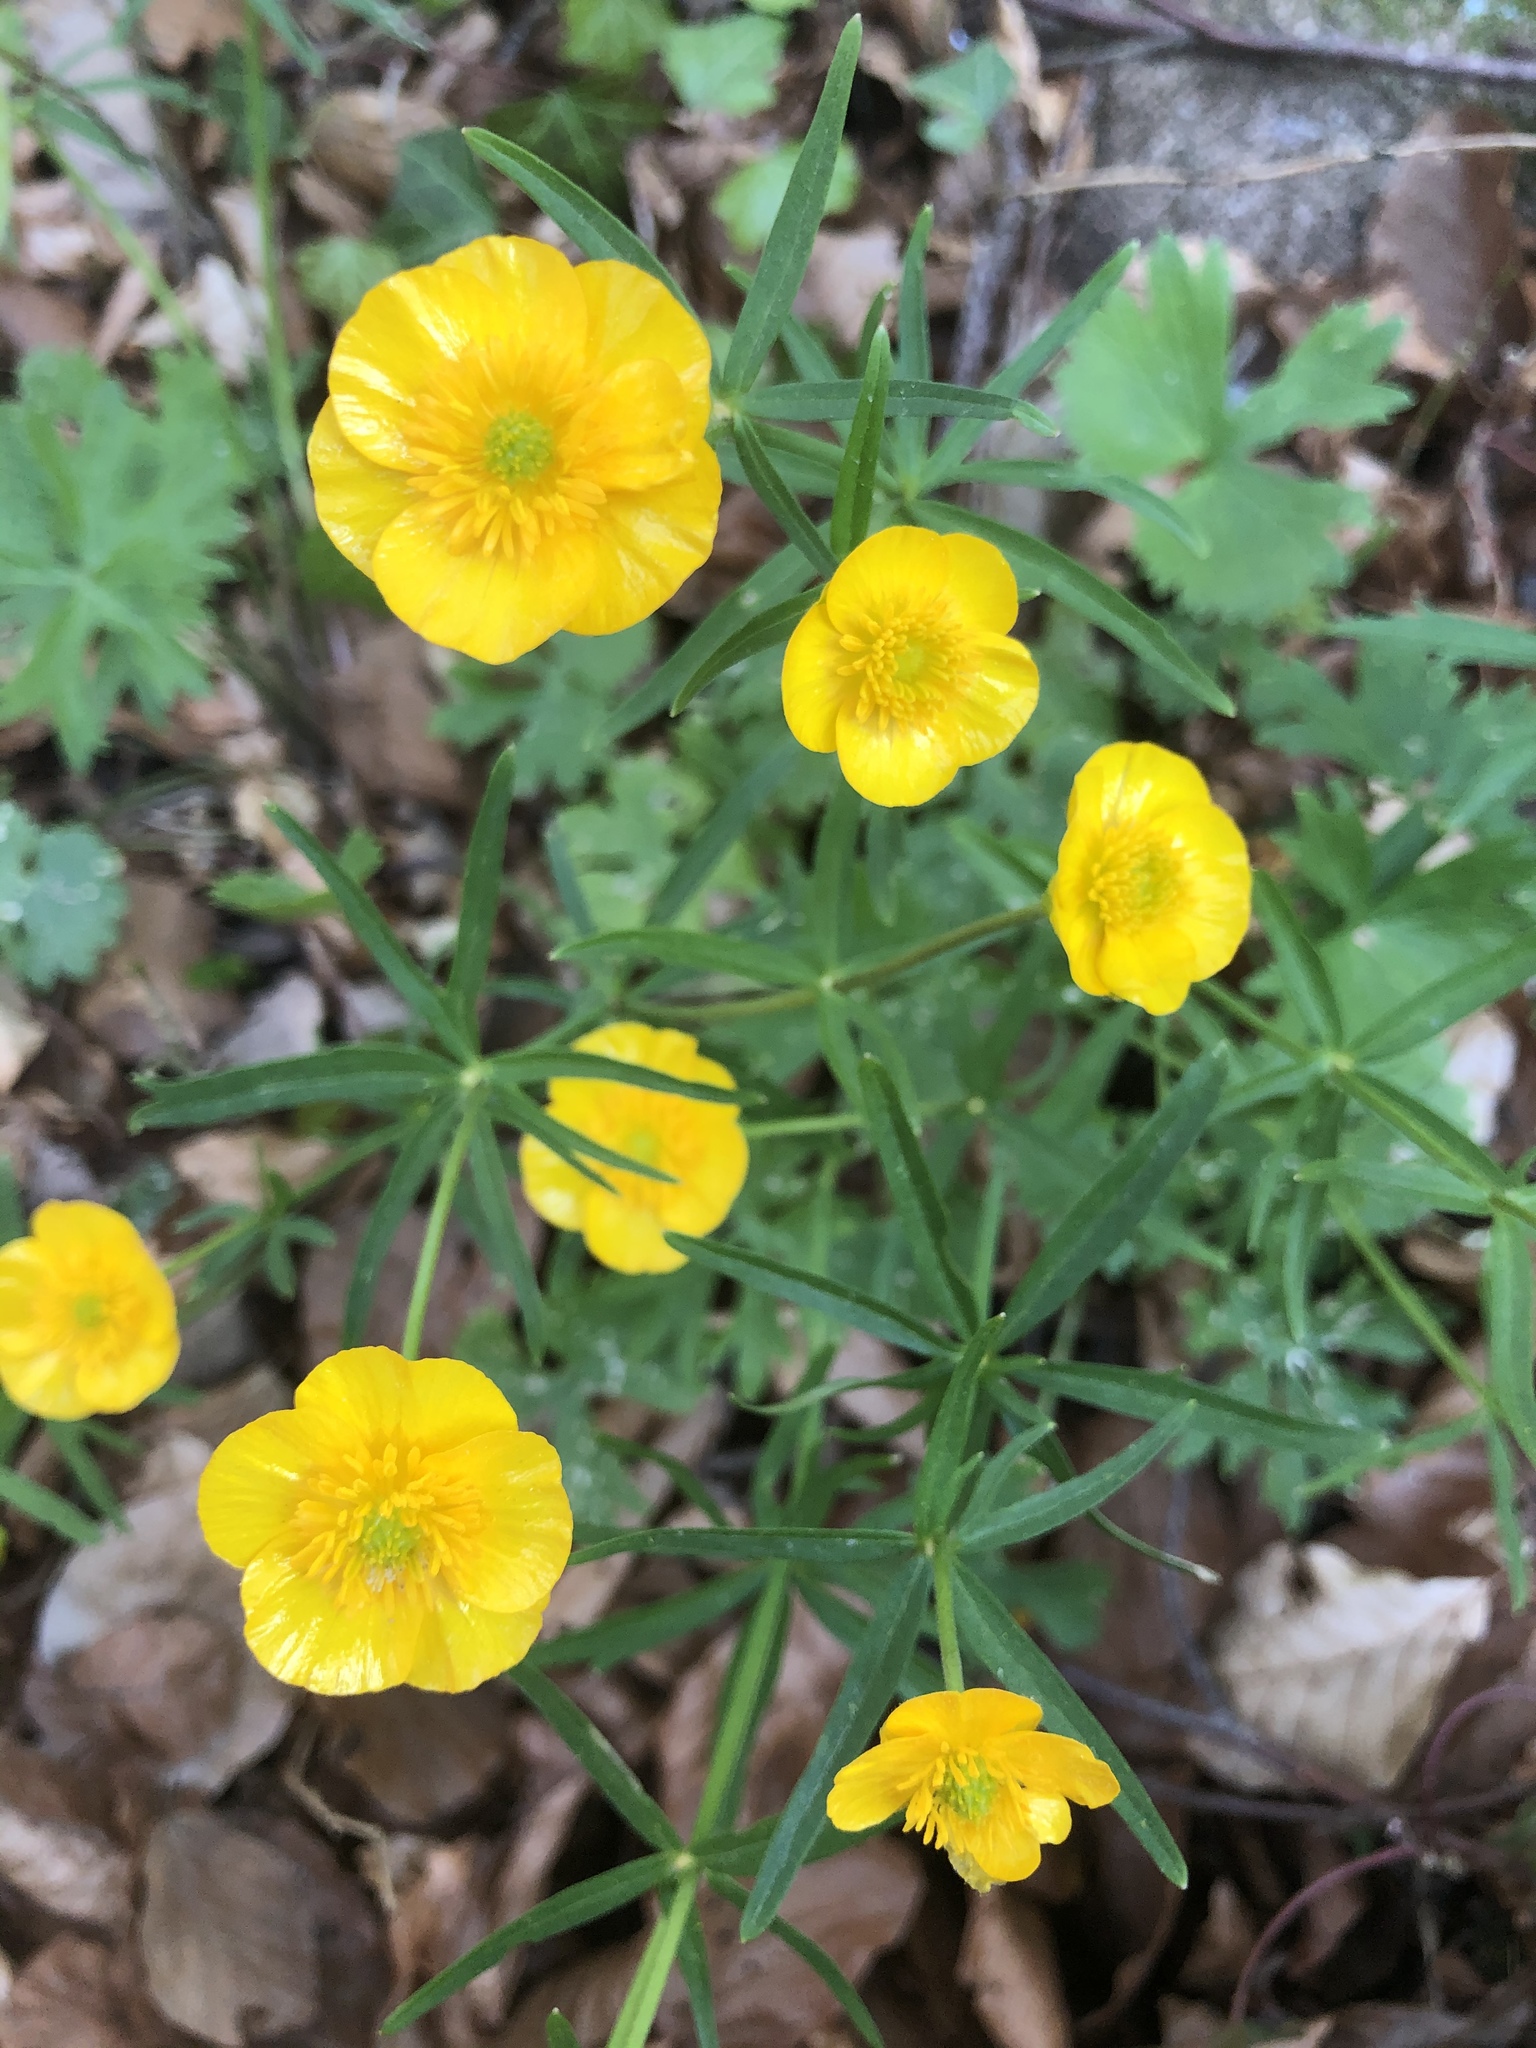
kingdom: Plantae
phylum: Tracheophyta
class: Magnoliopsida
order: Ranunculales
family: Ranunculaceae
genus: Ranunculus
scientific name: Ranunculus auricomus
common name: Goldilocks buttercup
